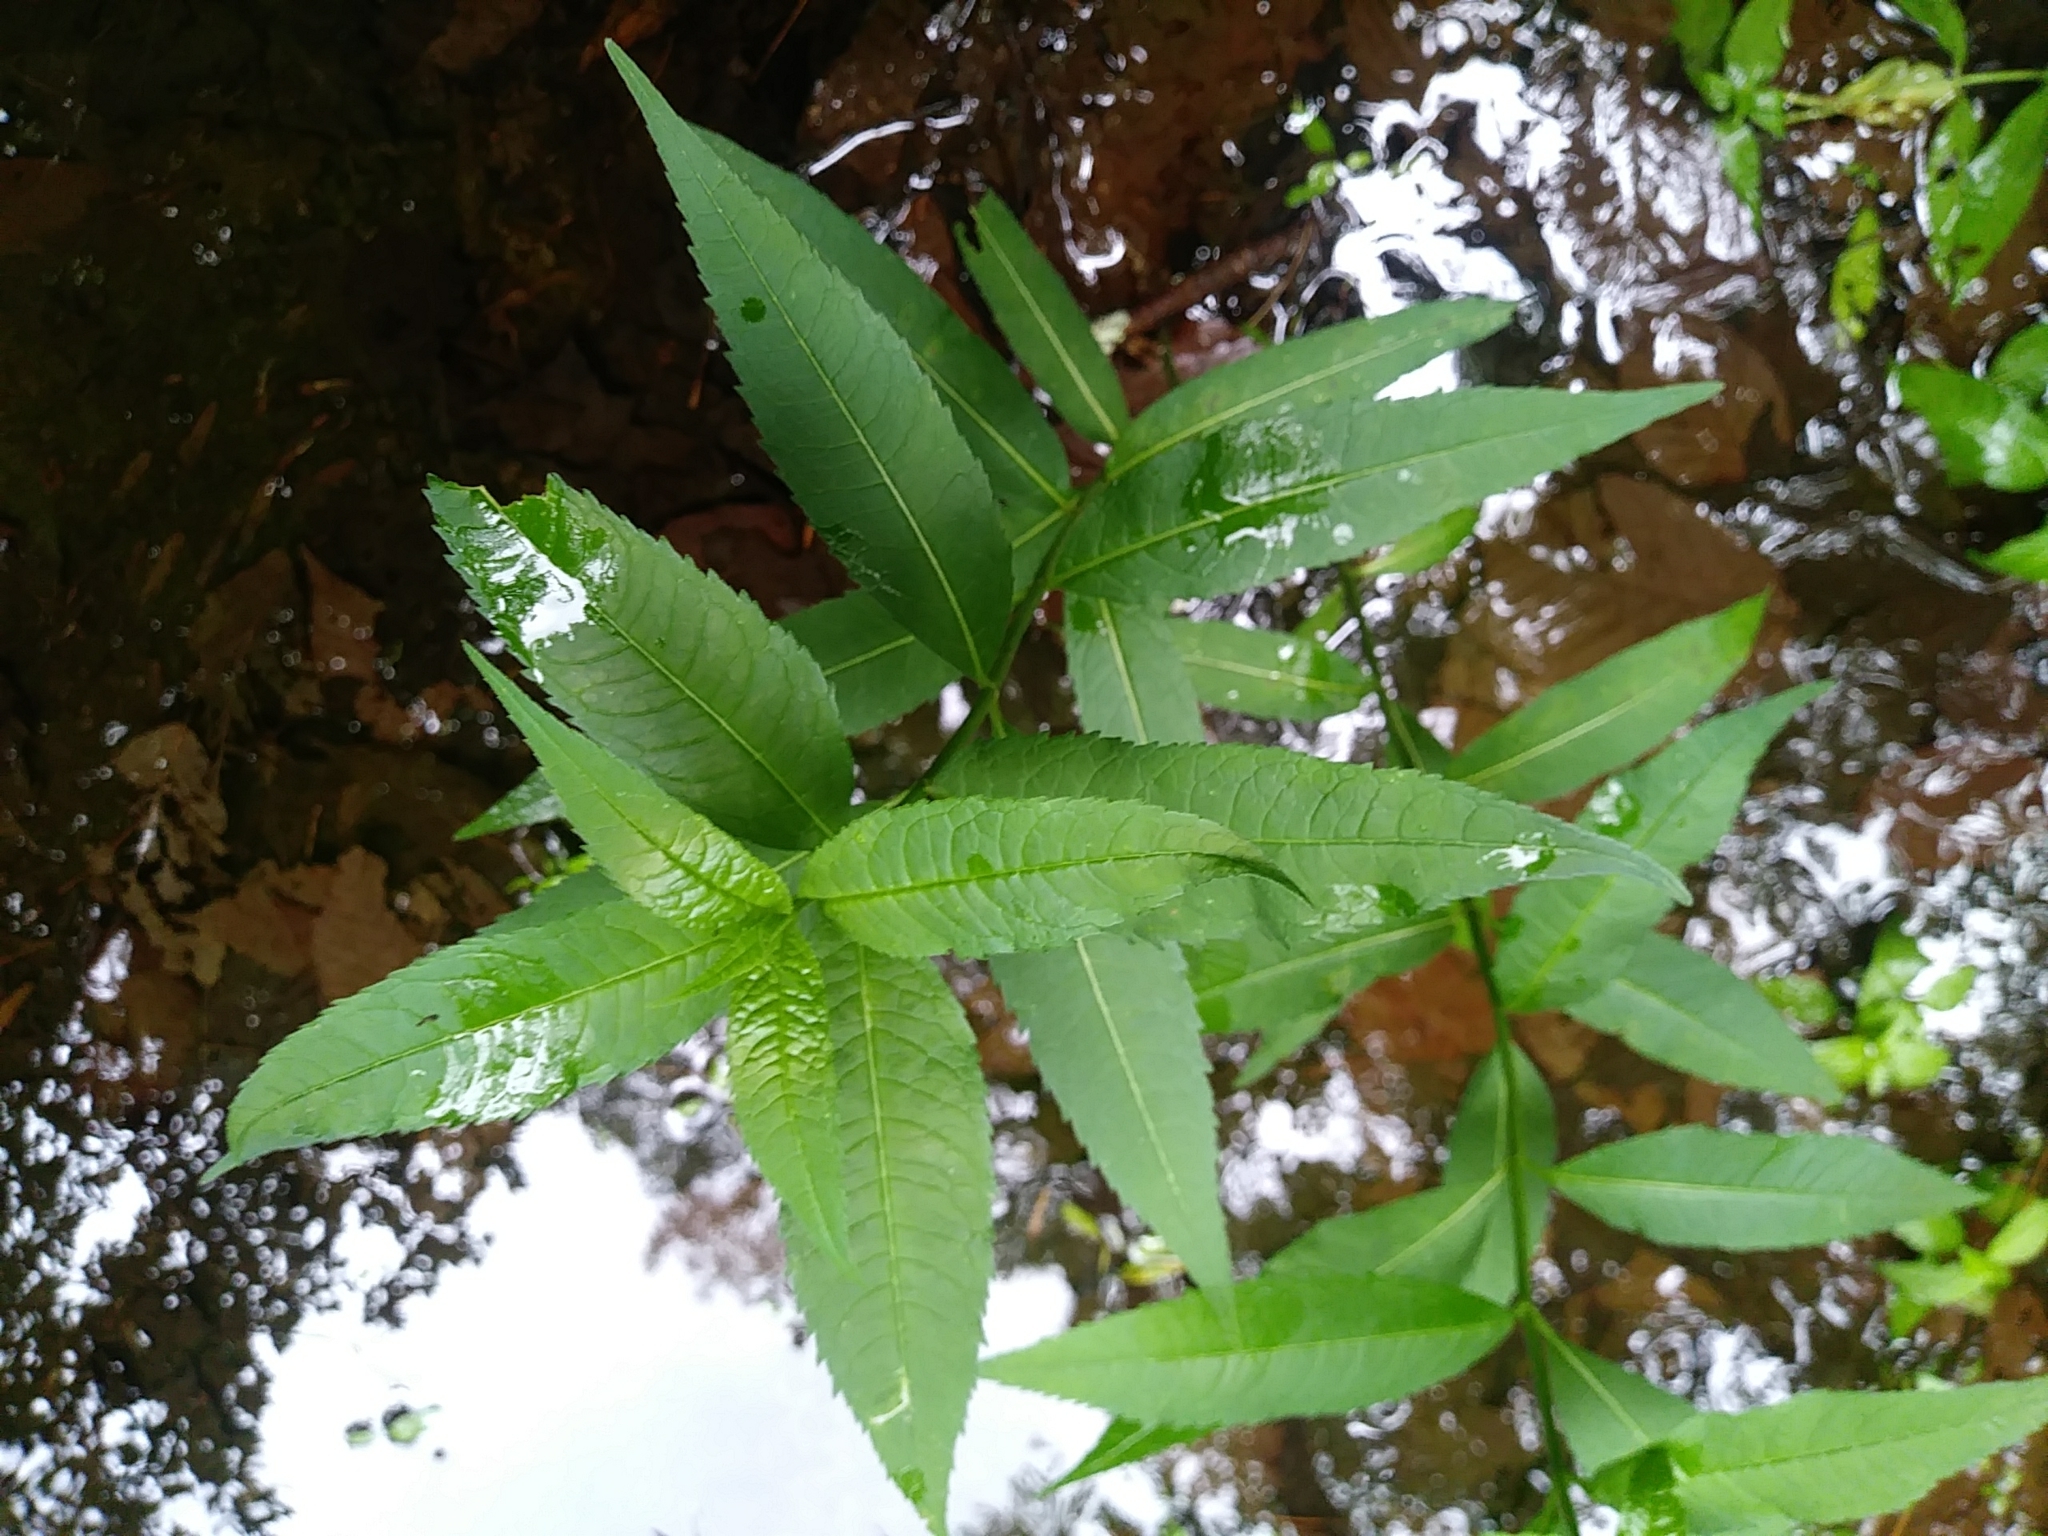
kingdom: Plantae
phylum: Tracheophyta
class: Magnoliopsida
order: Lamiales
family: Plantaginaceae
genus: Chelone
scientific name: Chelone glabra
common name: Snakehead
